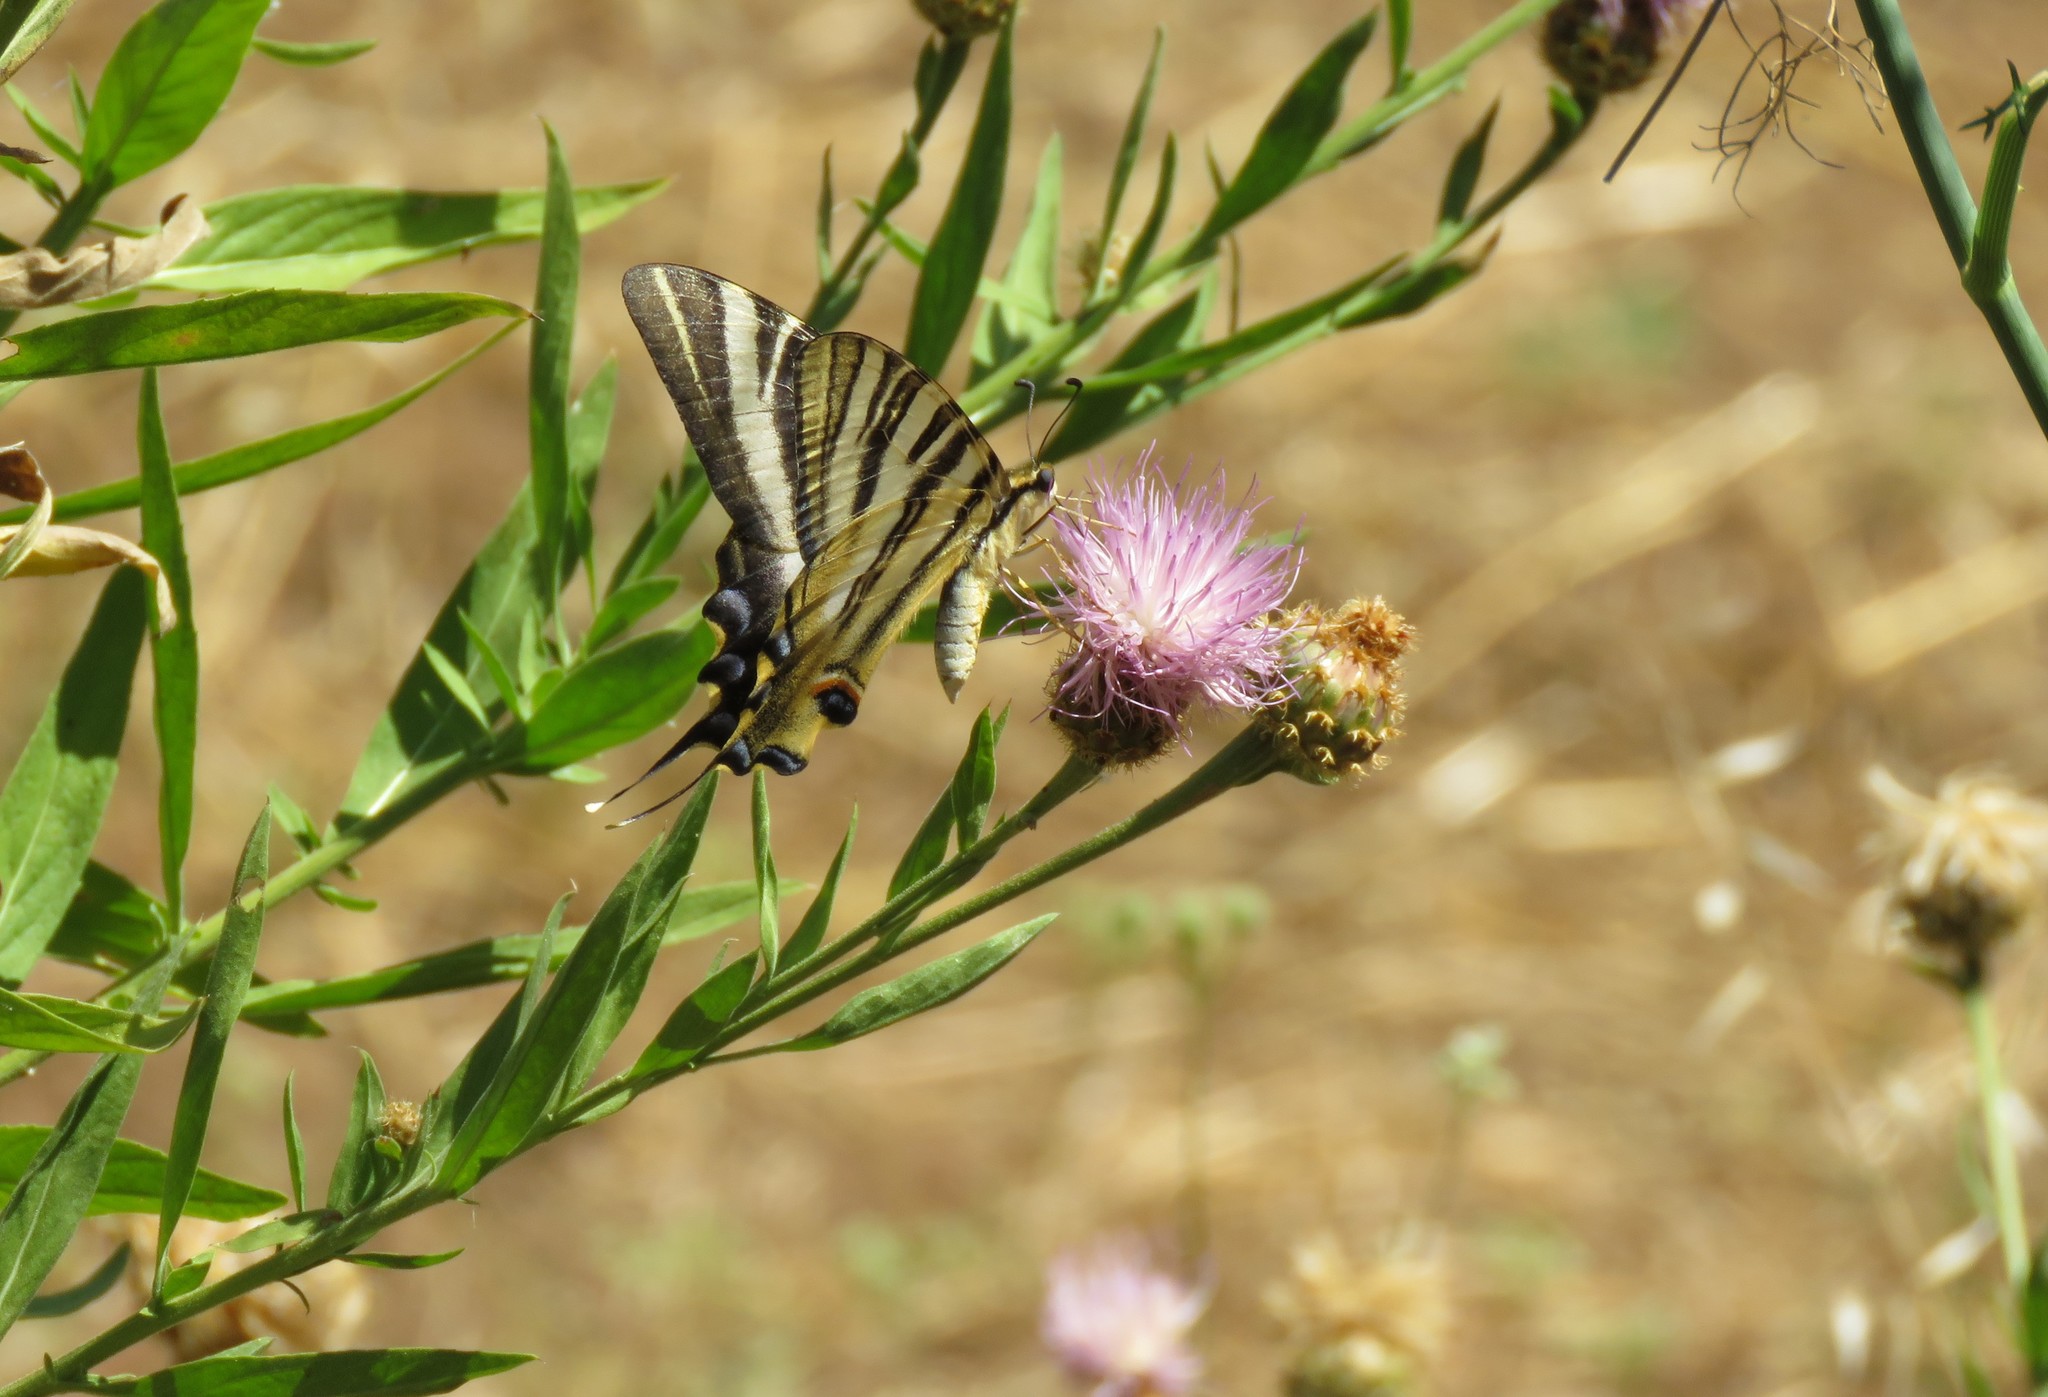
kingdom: Animalia
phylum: Arthropoda
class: Insecta
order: Lepidoptera
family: Papilionidae
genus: Iphiclides
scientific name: Iphiclides feisthamelii
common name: Iberian scarce swallowtail
